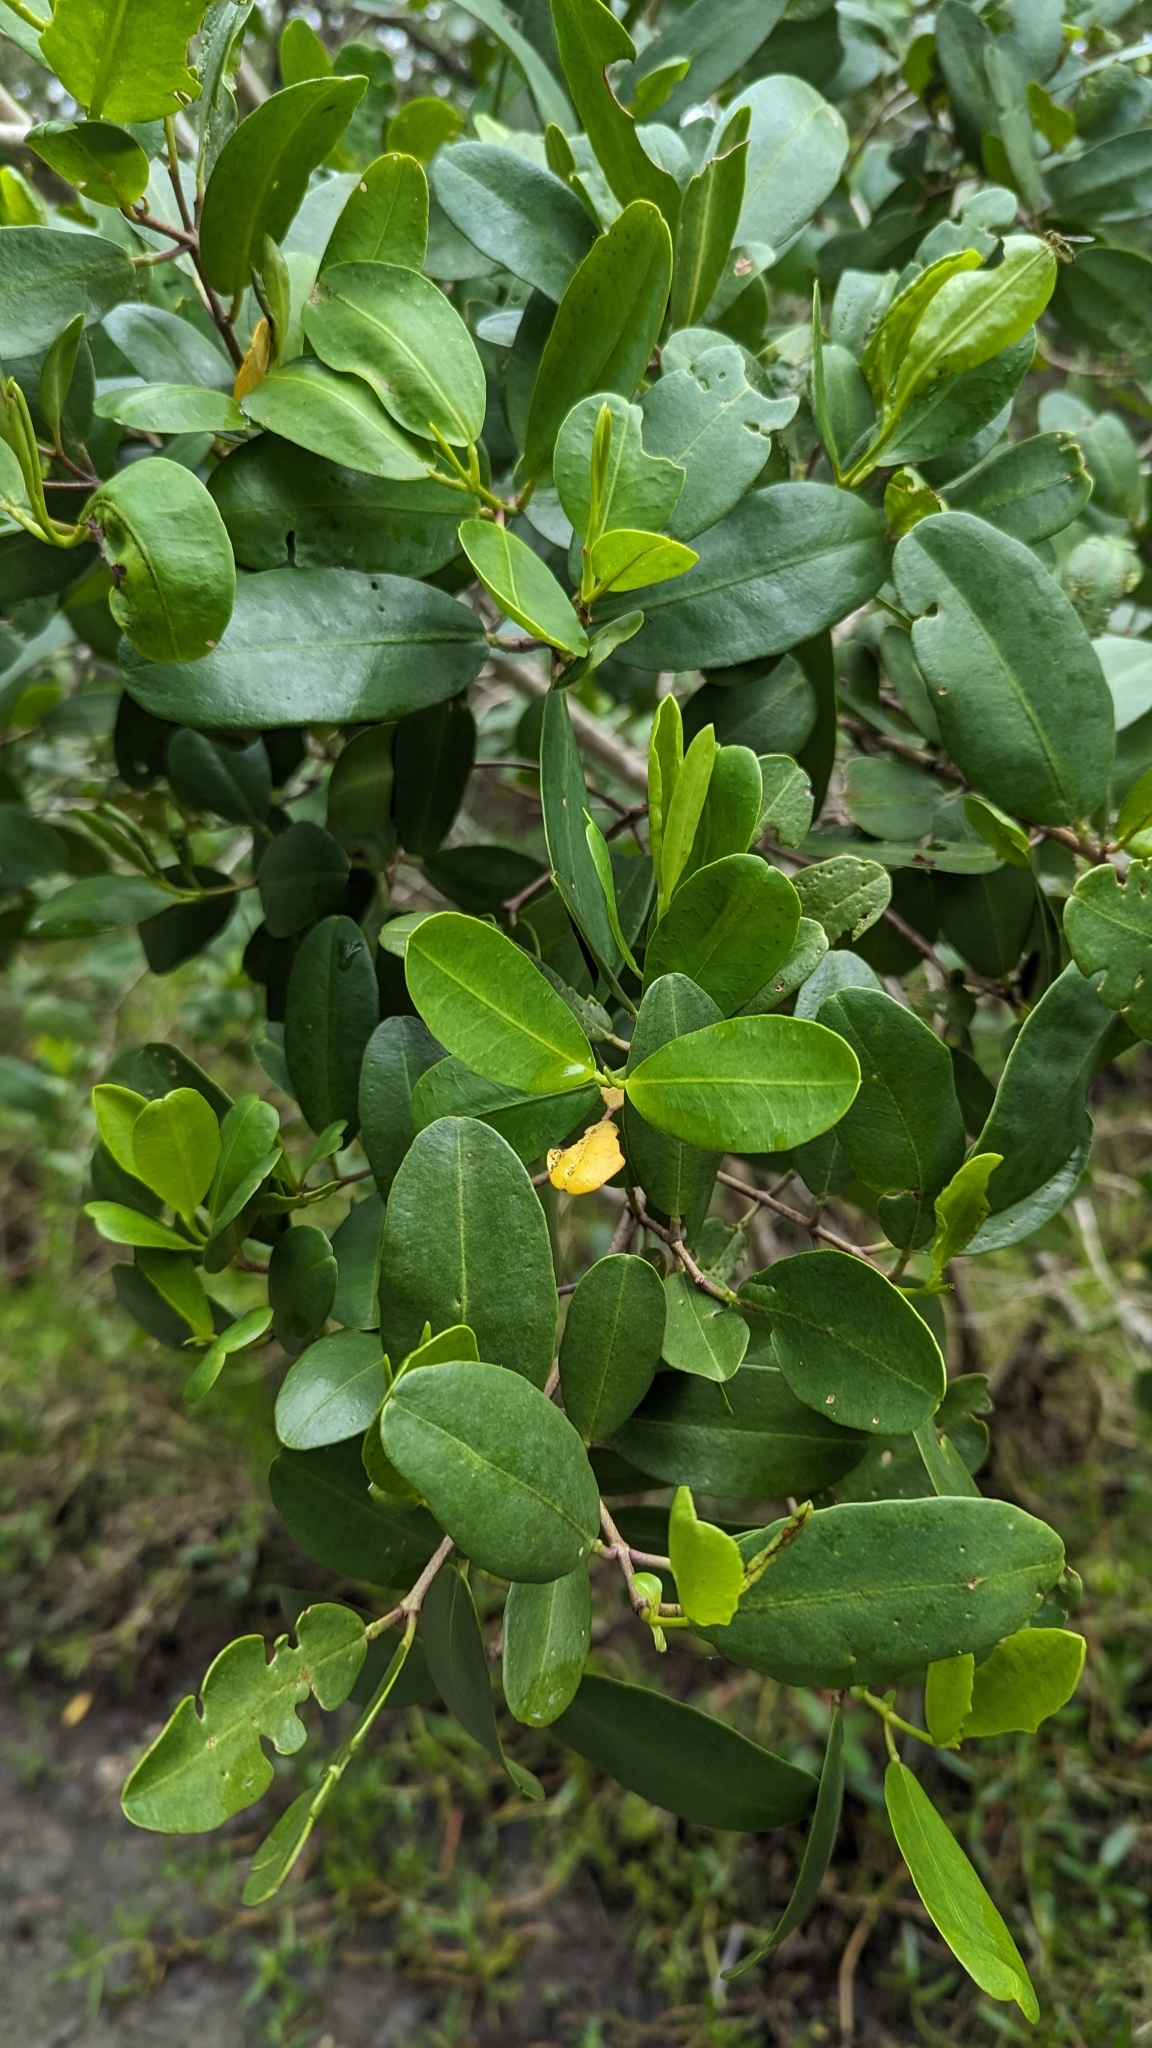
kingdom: Plantae
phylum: Tracheophyta
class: Magnoliopsida
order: Myrtales
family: Combretaceae
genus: Laguncularia
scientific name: Laguncularia racemosa
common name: White mangrove
